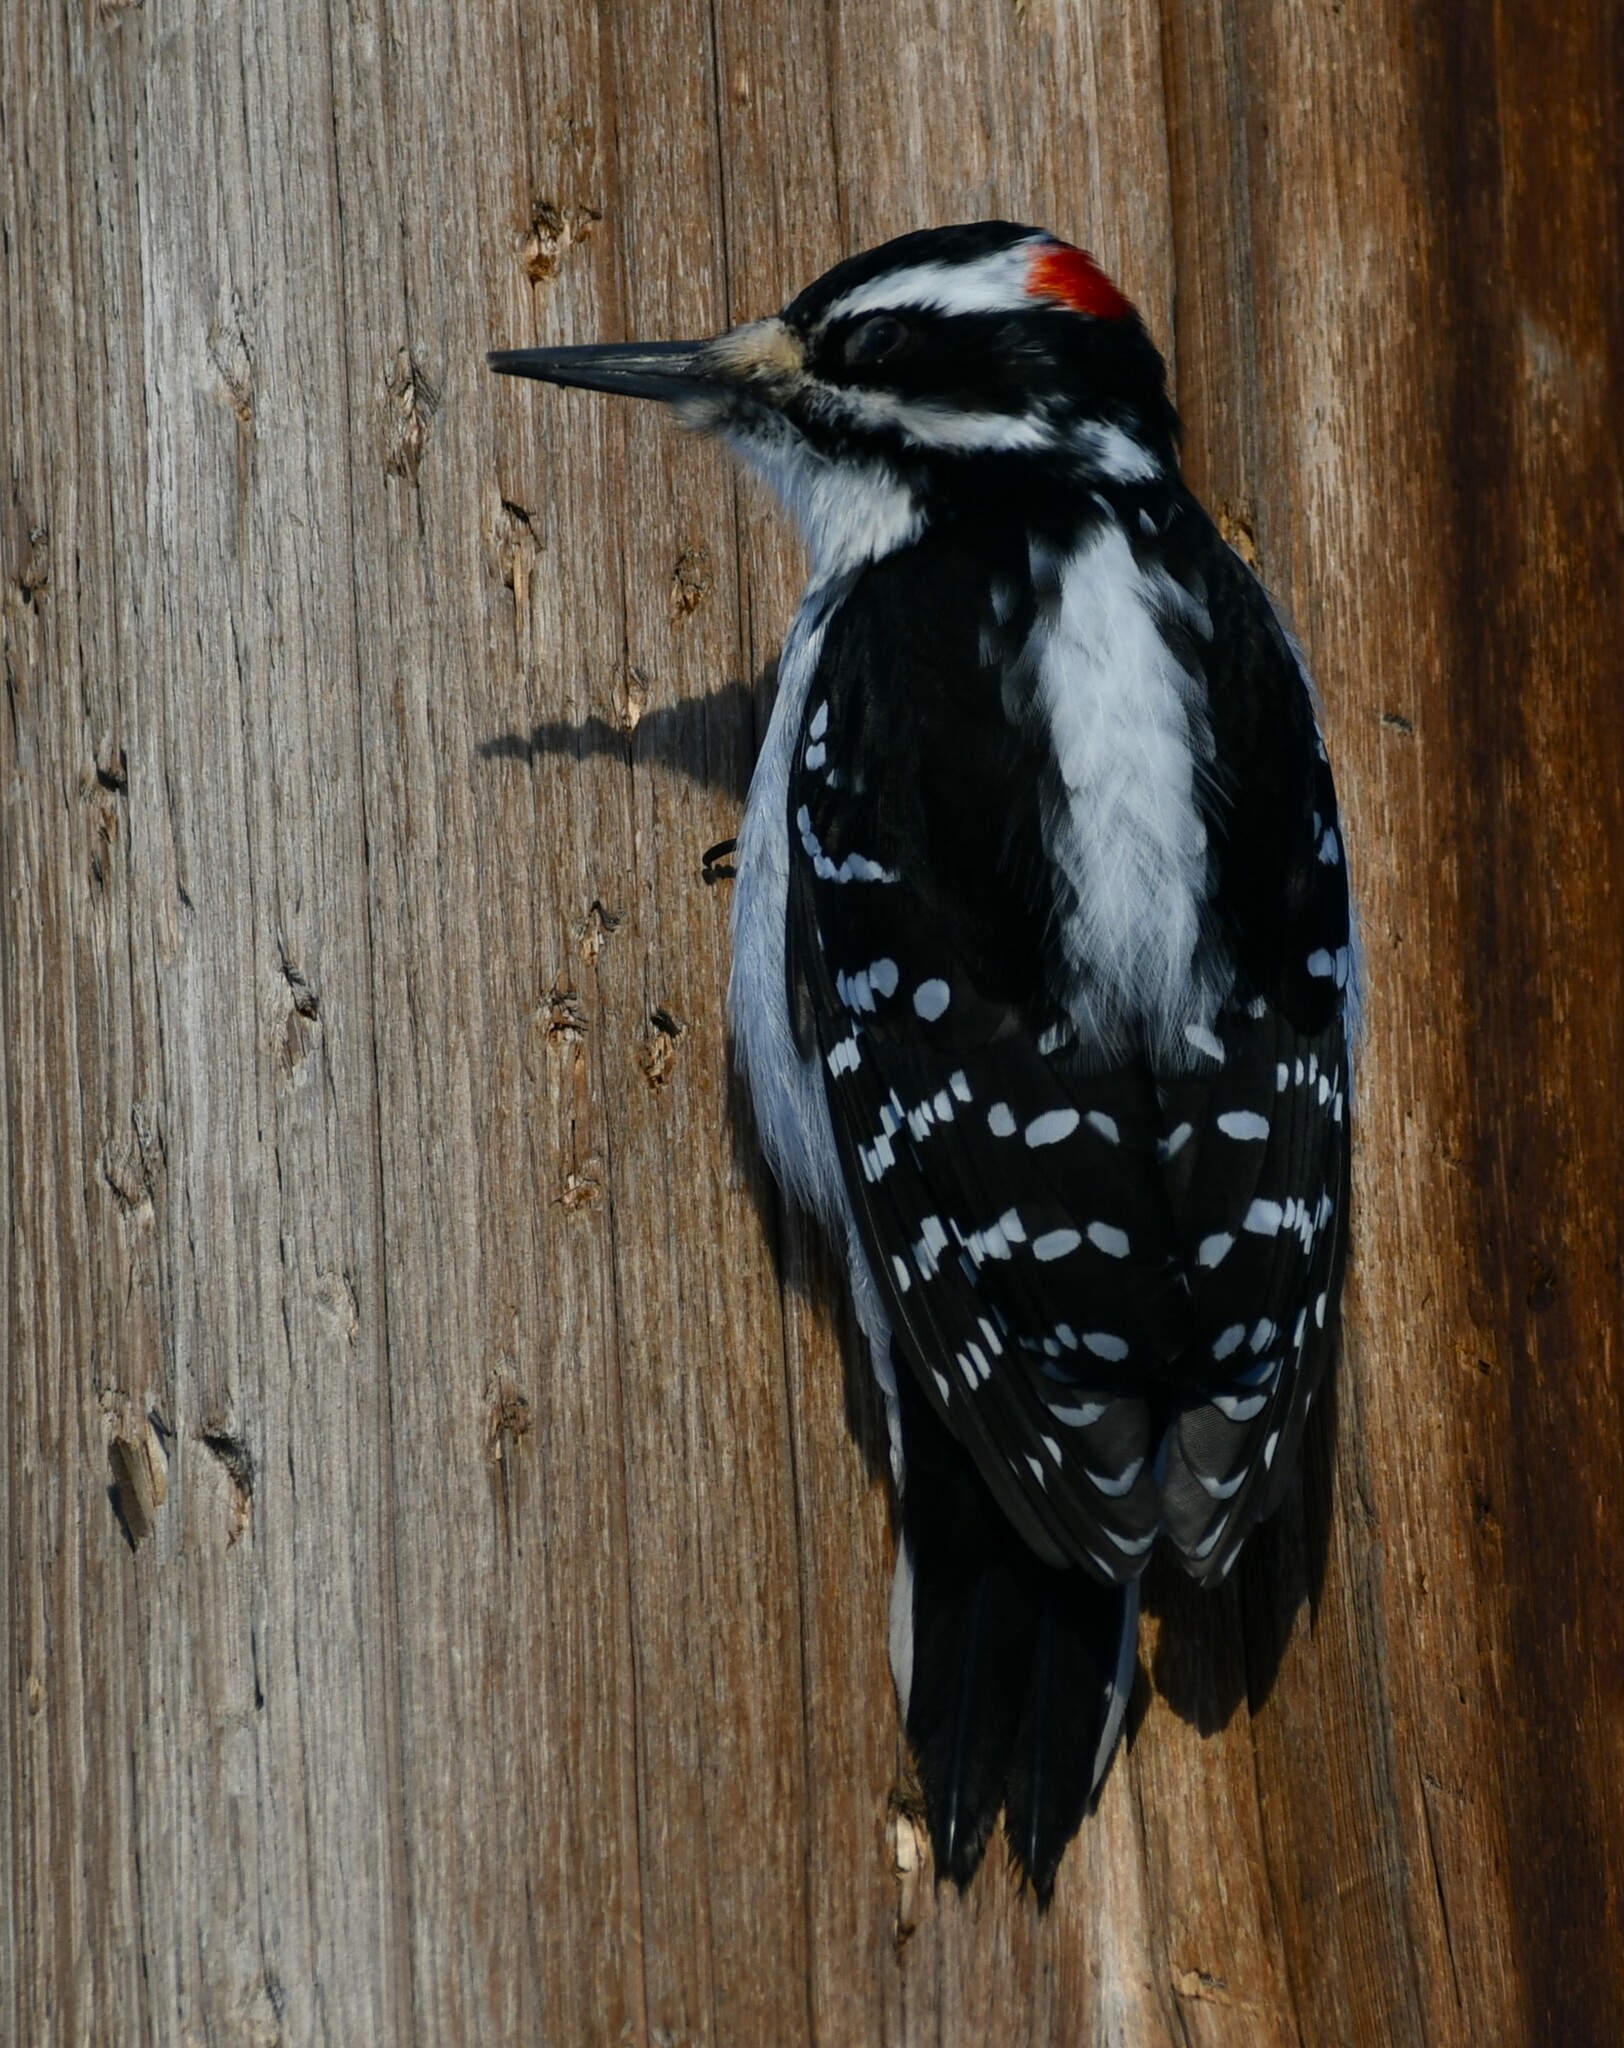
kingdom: Animalia
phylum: Chordata
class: Aves
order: Piciformes
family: Picidae
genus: Leuconotopicus
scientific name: Leuconotopicus villosus
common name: Hairy woodpecker
